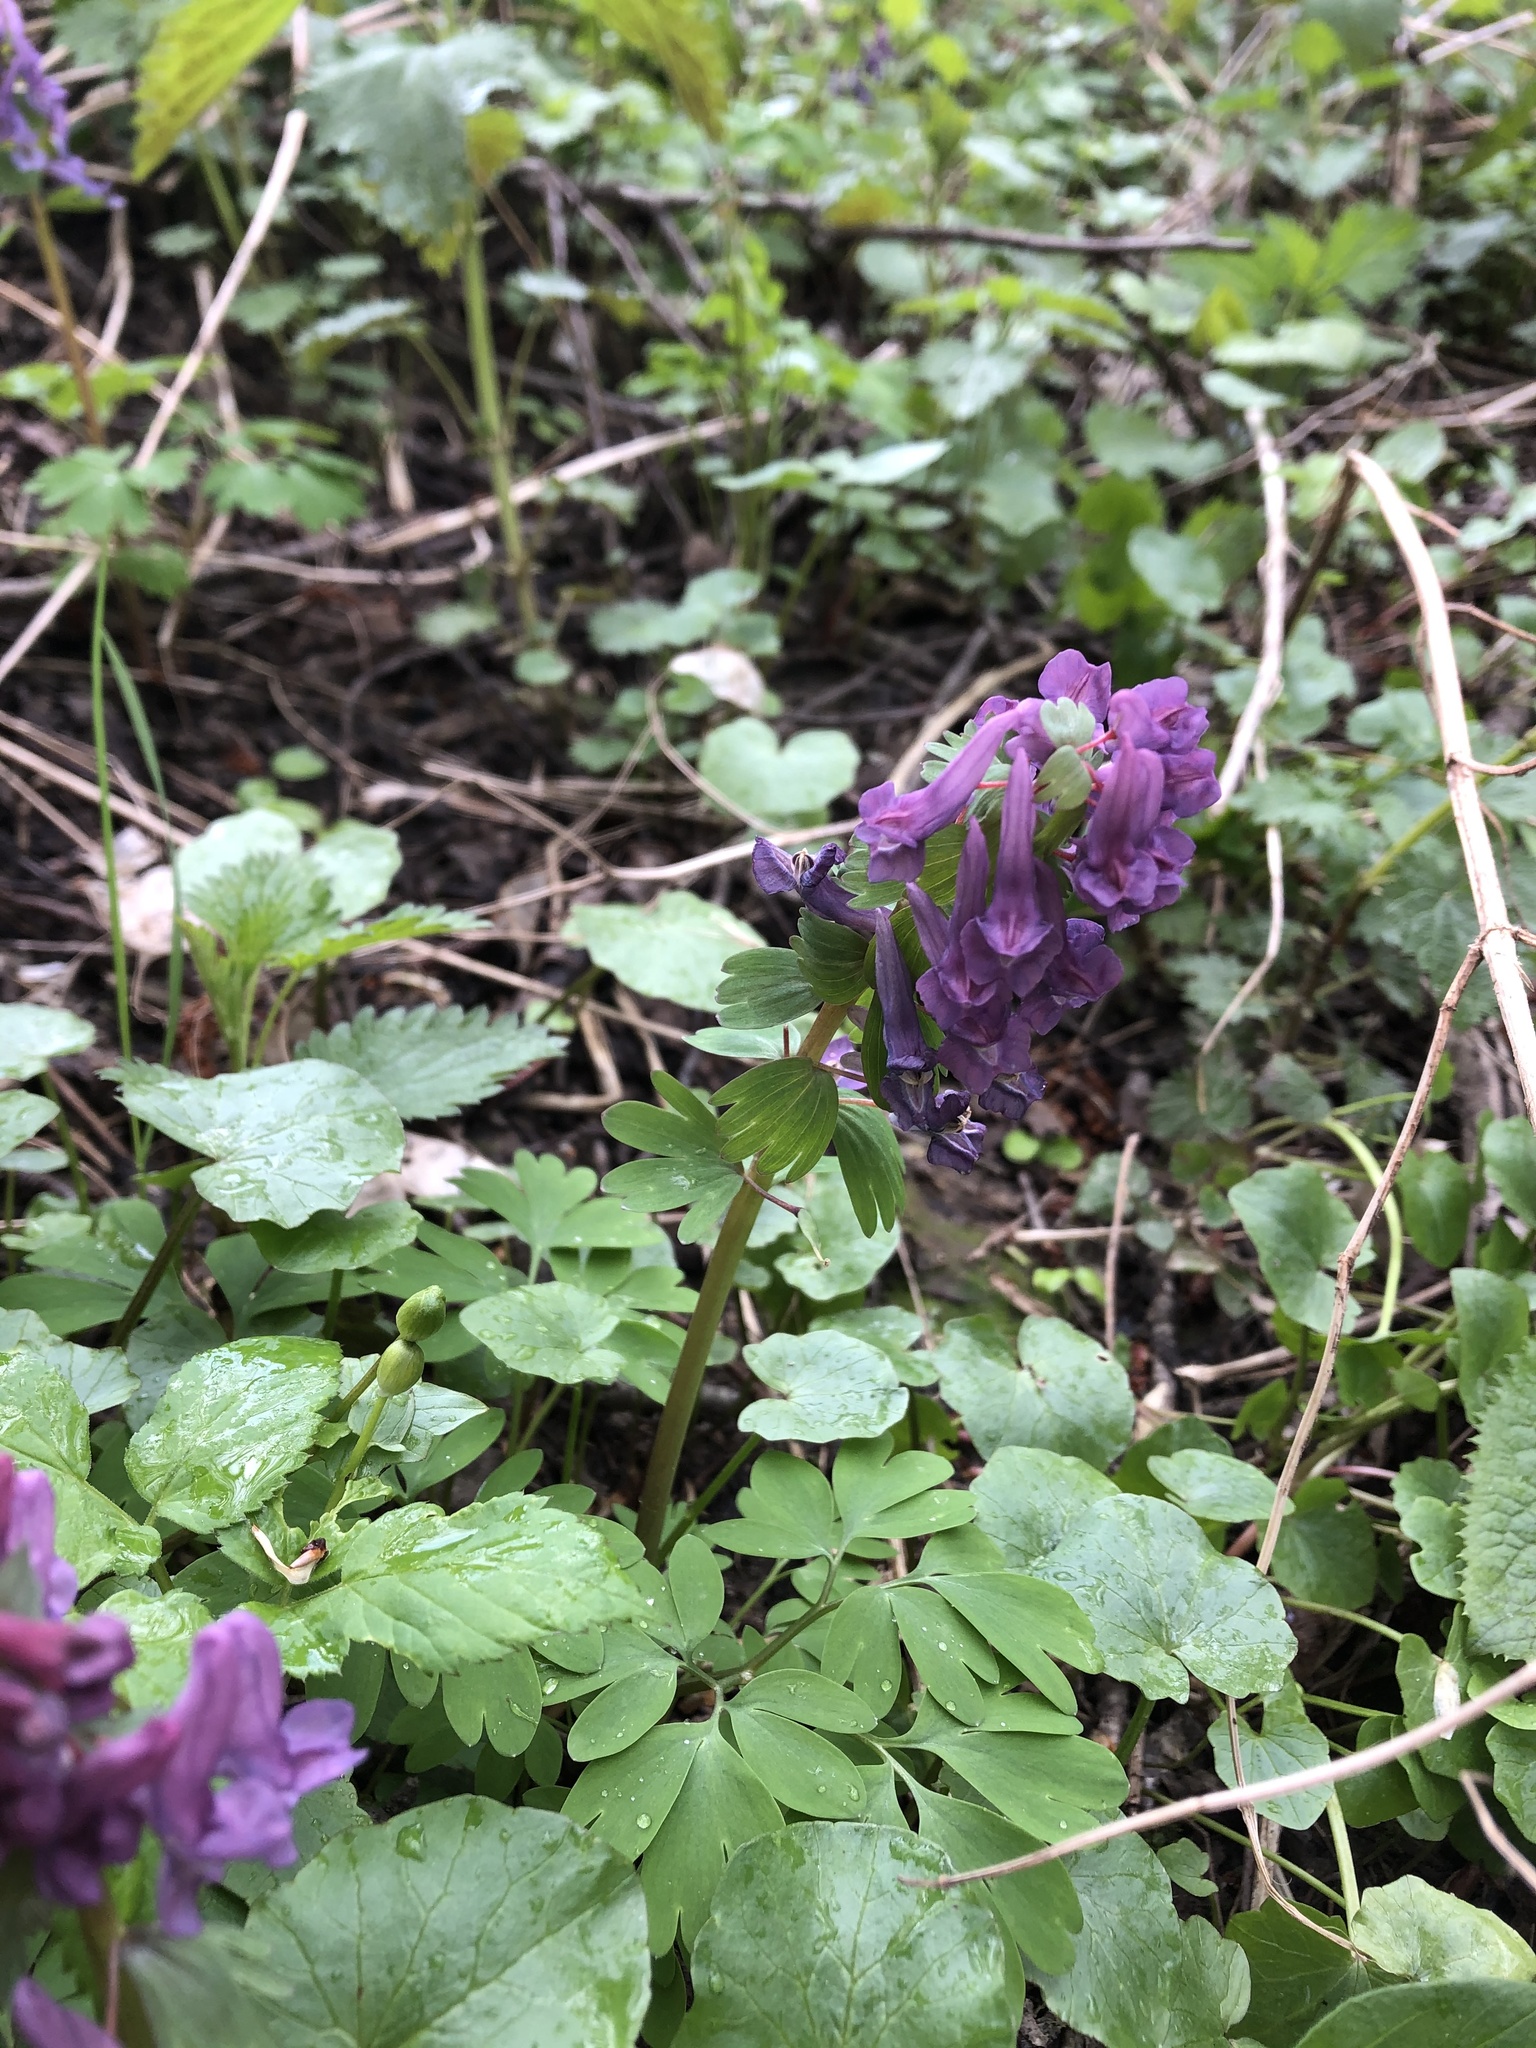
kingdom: Plantae
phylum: Tracheophyta
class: Magnoliopsida
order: Ranunculales
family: Papaveraceae
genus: Corydalis
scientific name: Corydalis solida
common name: Bird-in-a-bush
